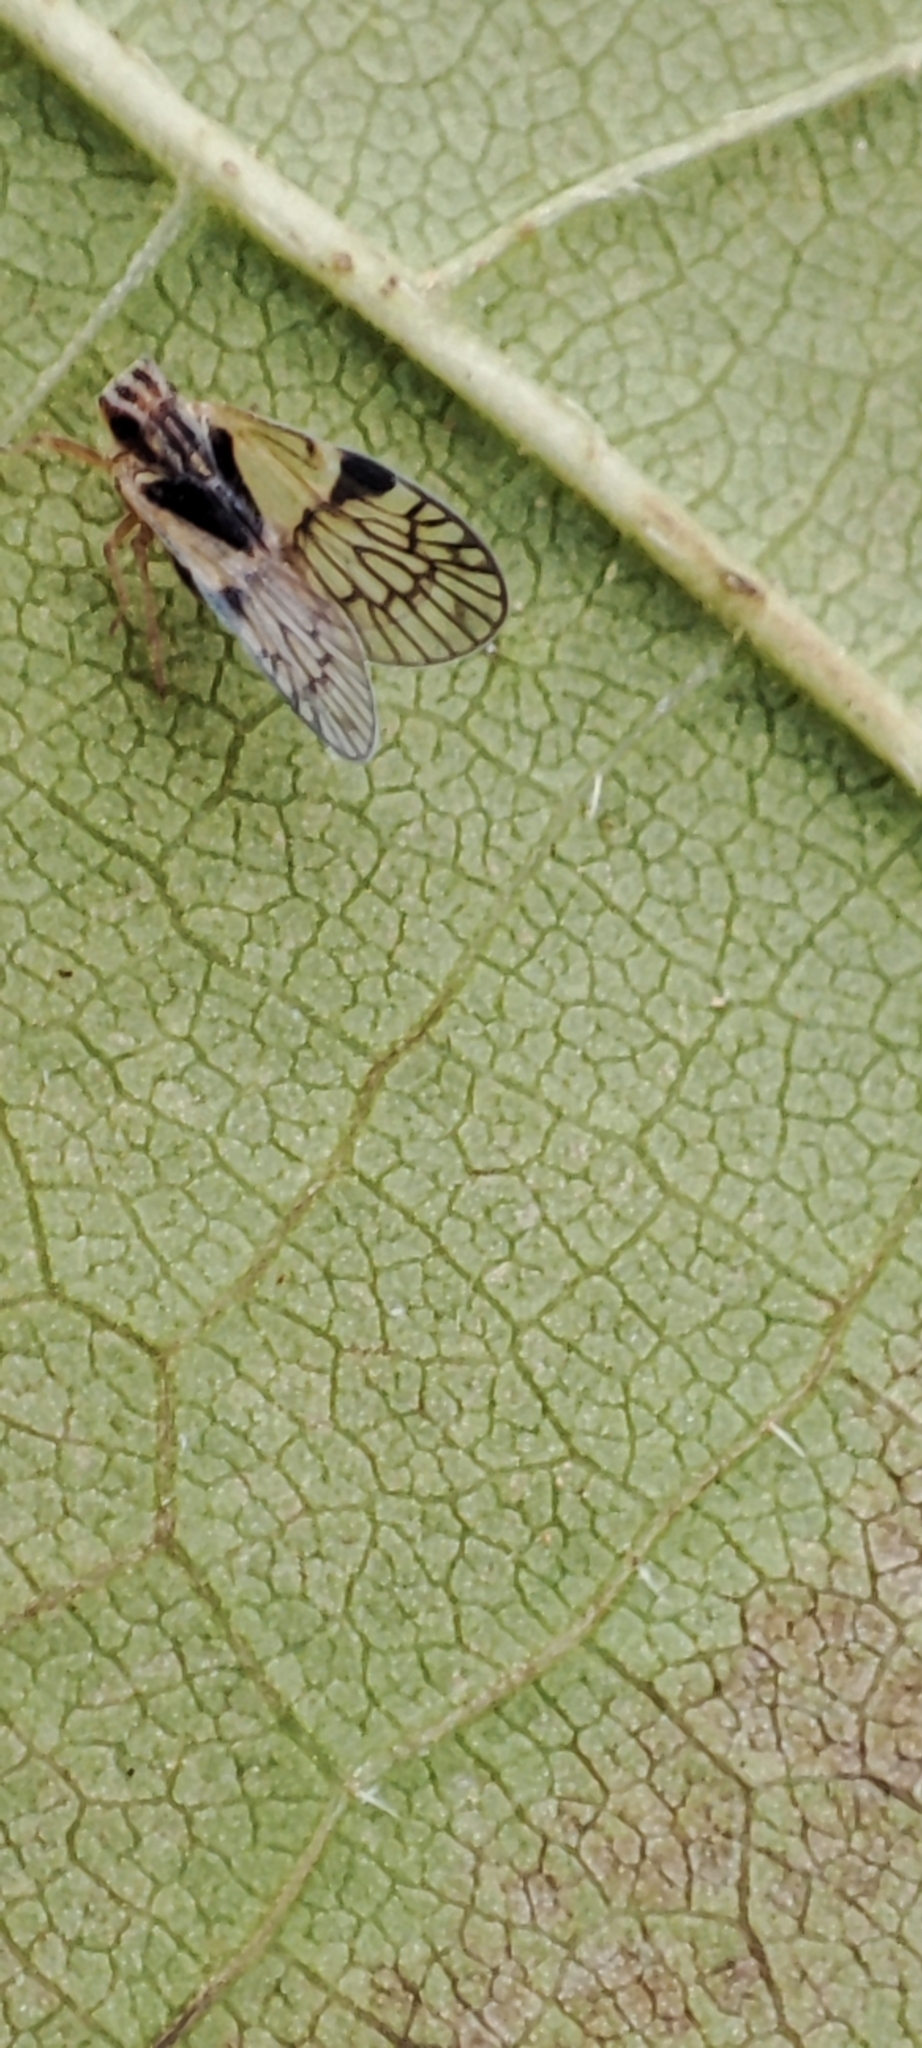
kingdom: Animalia
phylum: Arthropoda
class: Insecta
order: Hemiptera
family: Cixiidae
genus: Bothriocera
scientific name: Bothriocera cacus
